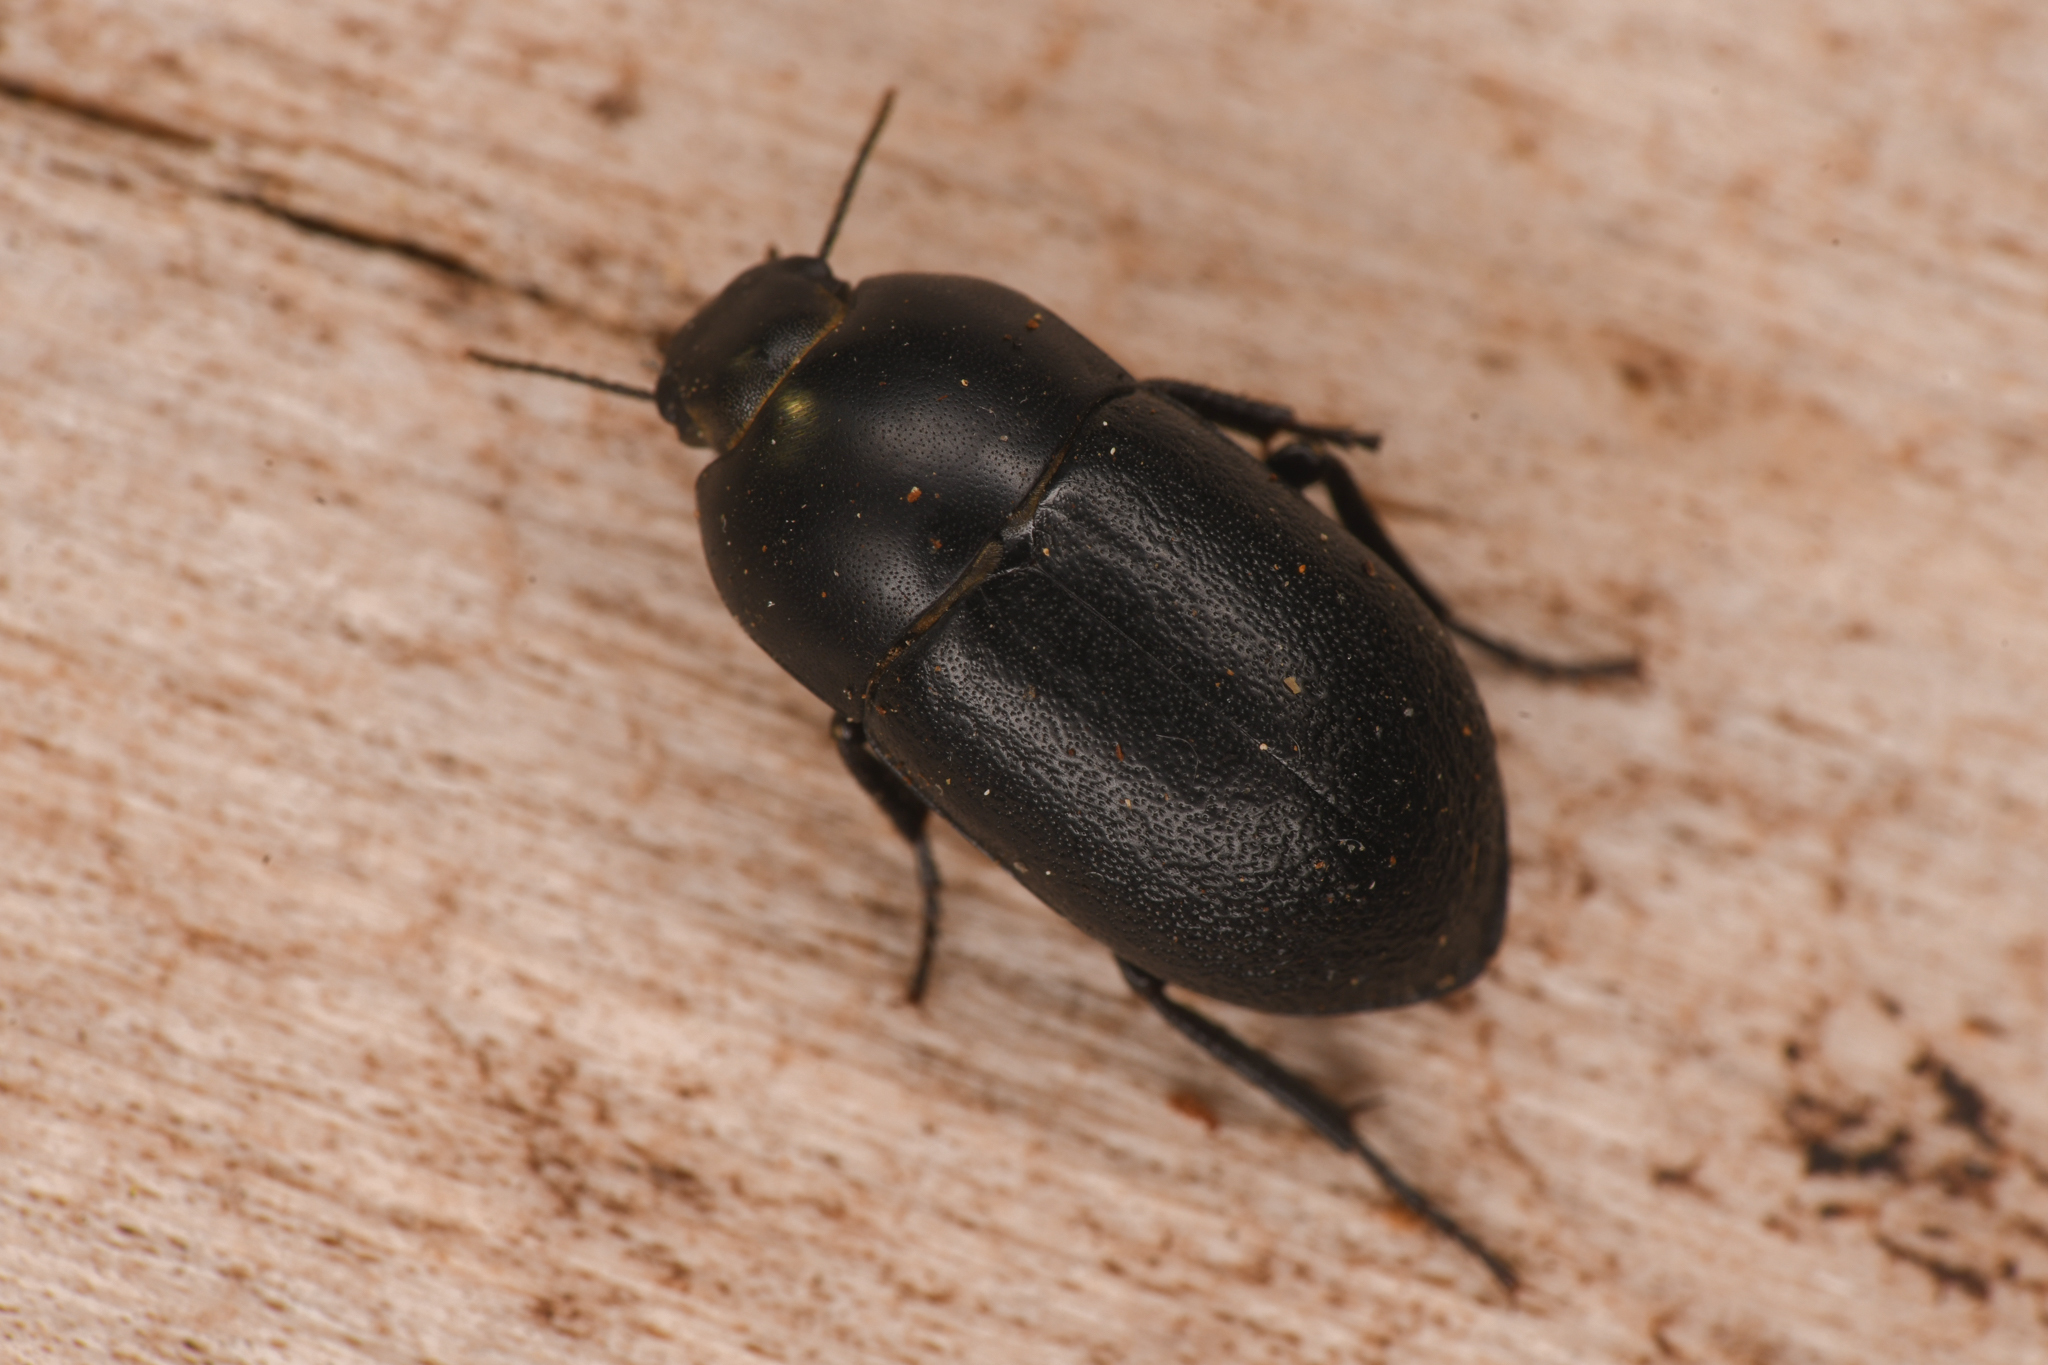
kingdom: Animalia
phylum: Arthropoda
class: Insecta
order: Coleoptera
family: Tenebrionidae
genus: Coniontis
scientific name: Coniontis
